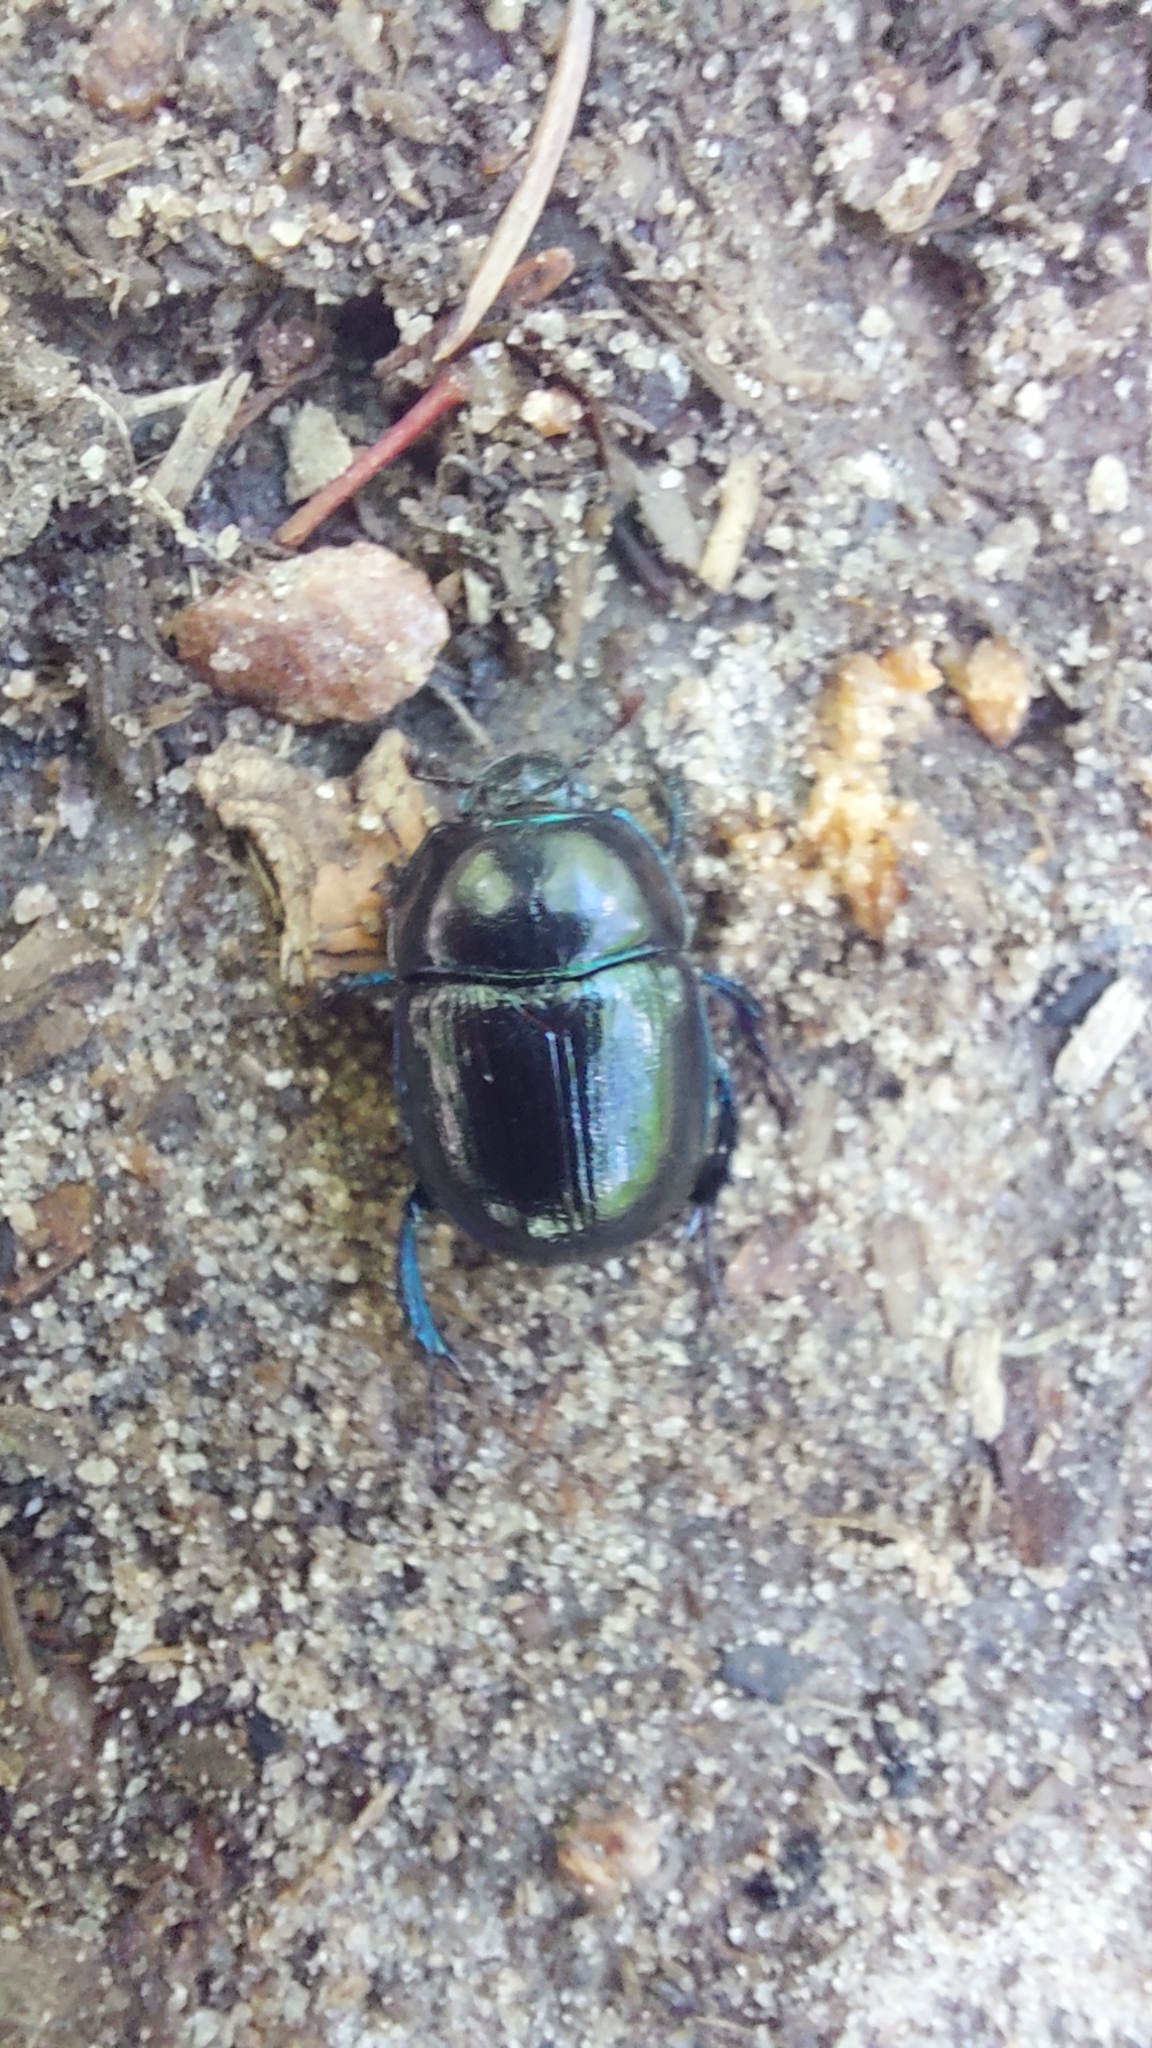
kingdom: Animalia
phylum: Arthropoda
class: Insecta
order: Coleoptera
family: Geotrupidae
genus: Anoplotrupes
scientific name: Anoplotrupes stercorosus
